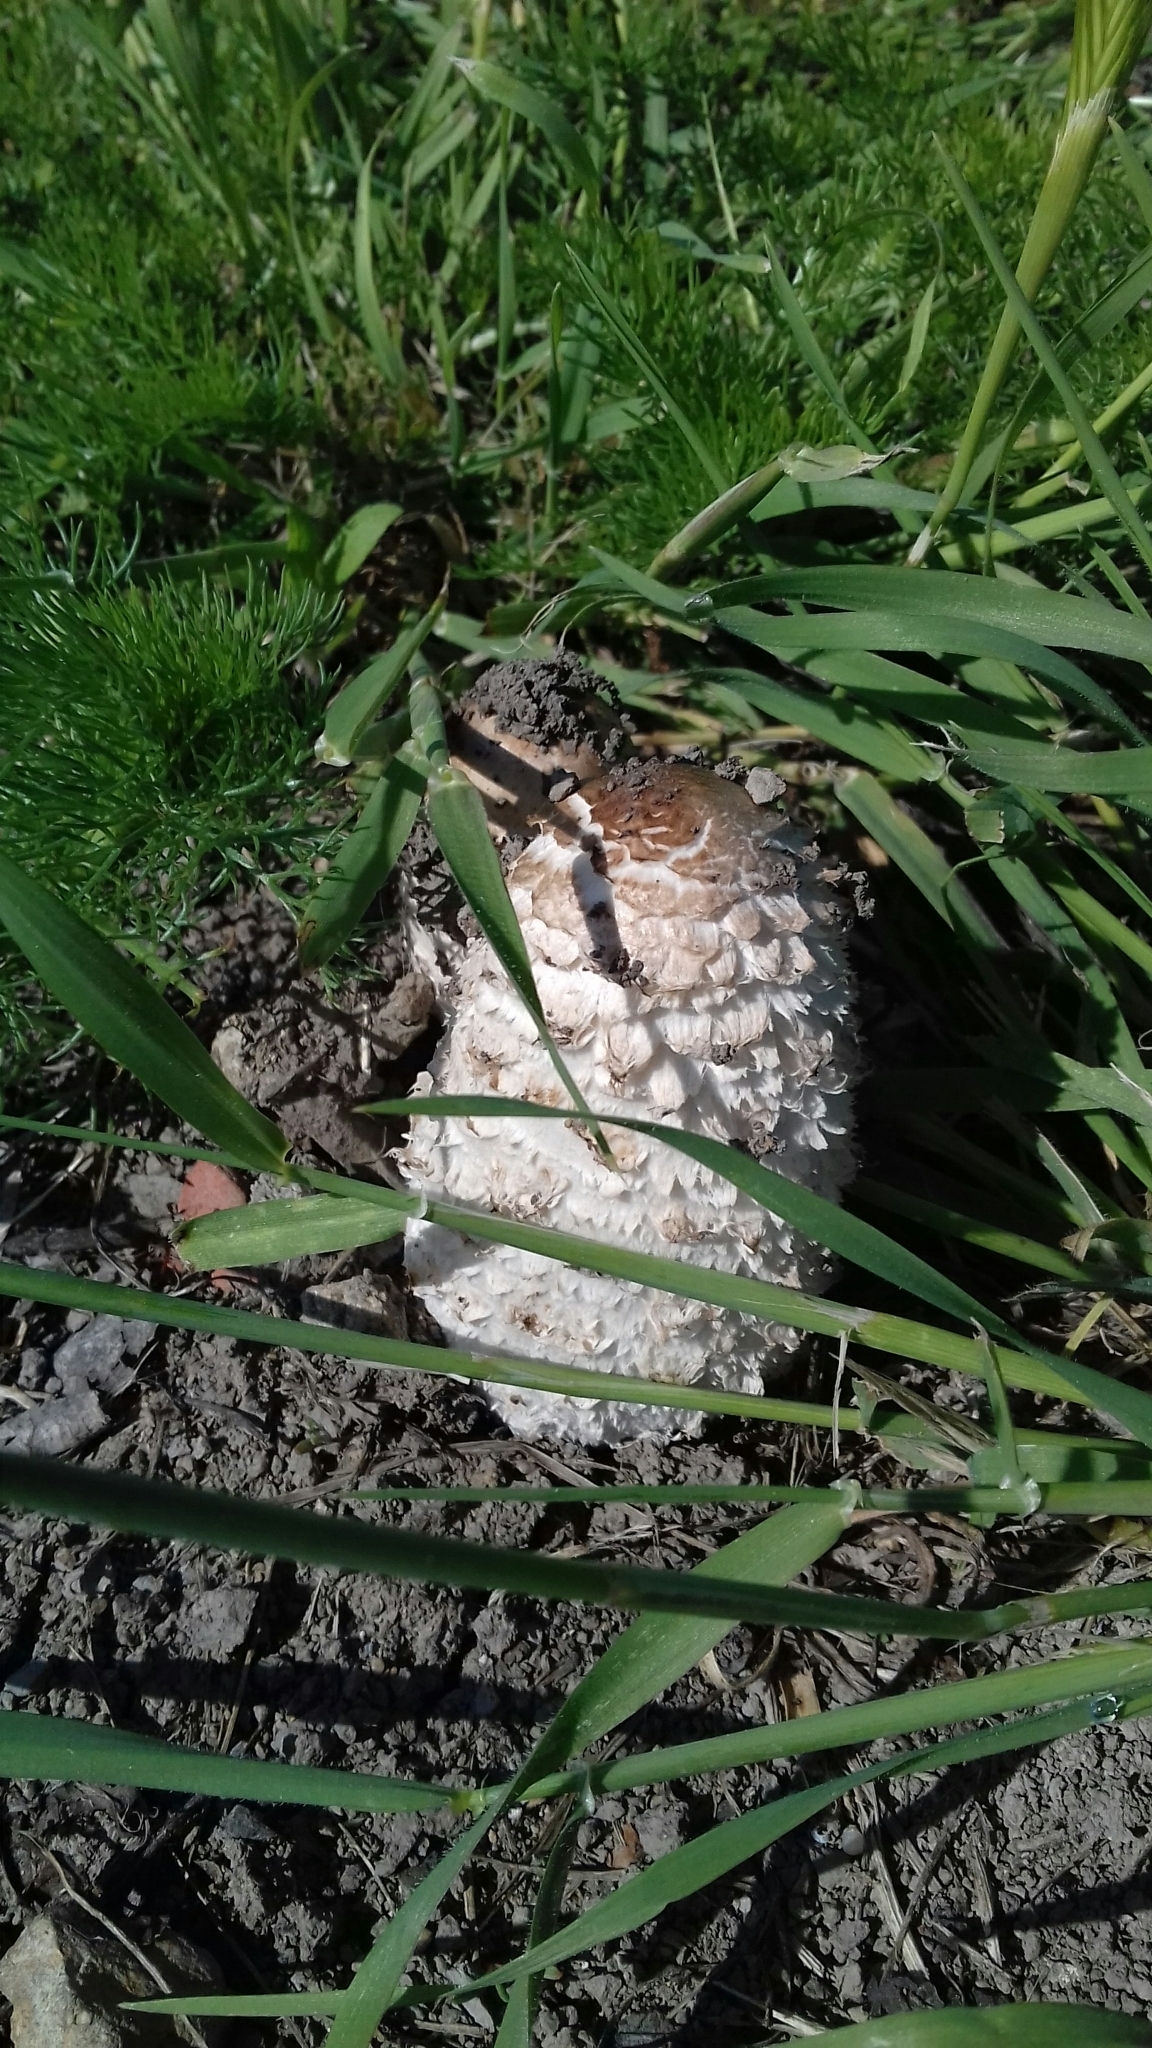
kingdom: Fungi
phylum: Basidiomycota
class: Agaricomycetes
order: Agaricales
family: Agaricaceae
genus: Coprinus
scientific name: Coprinus comatus
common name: Lawyer's wig
